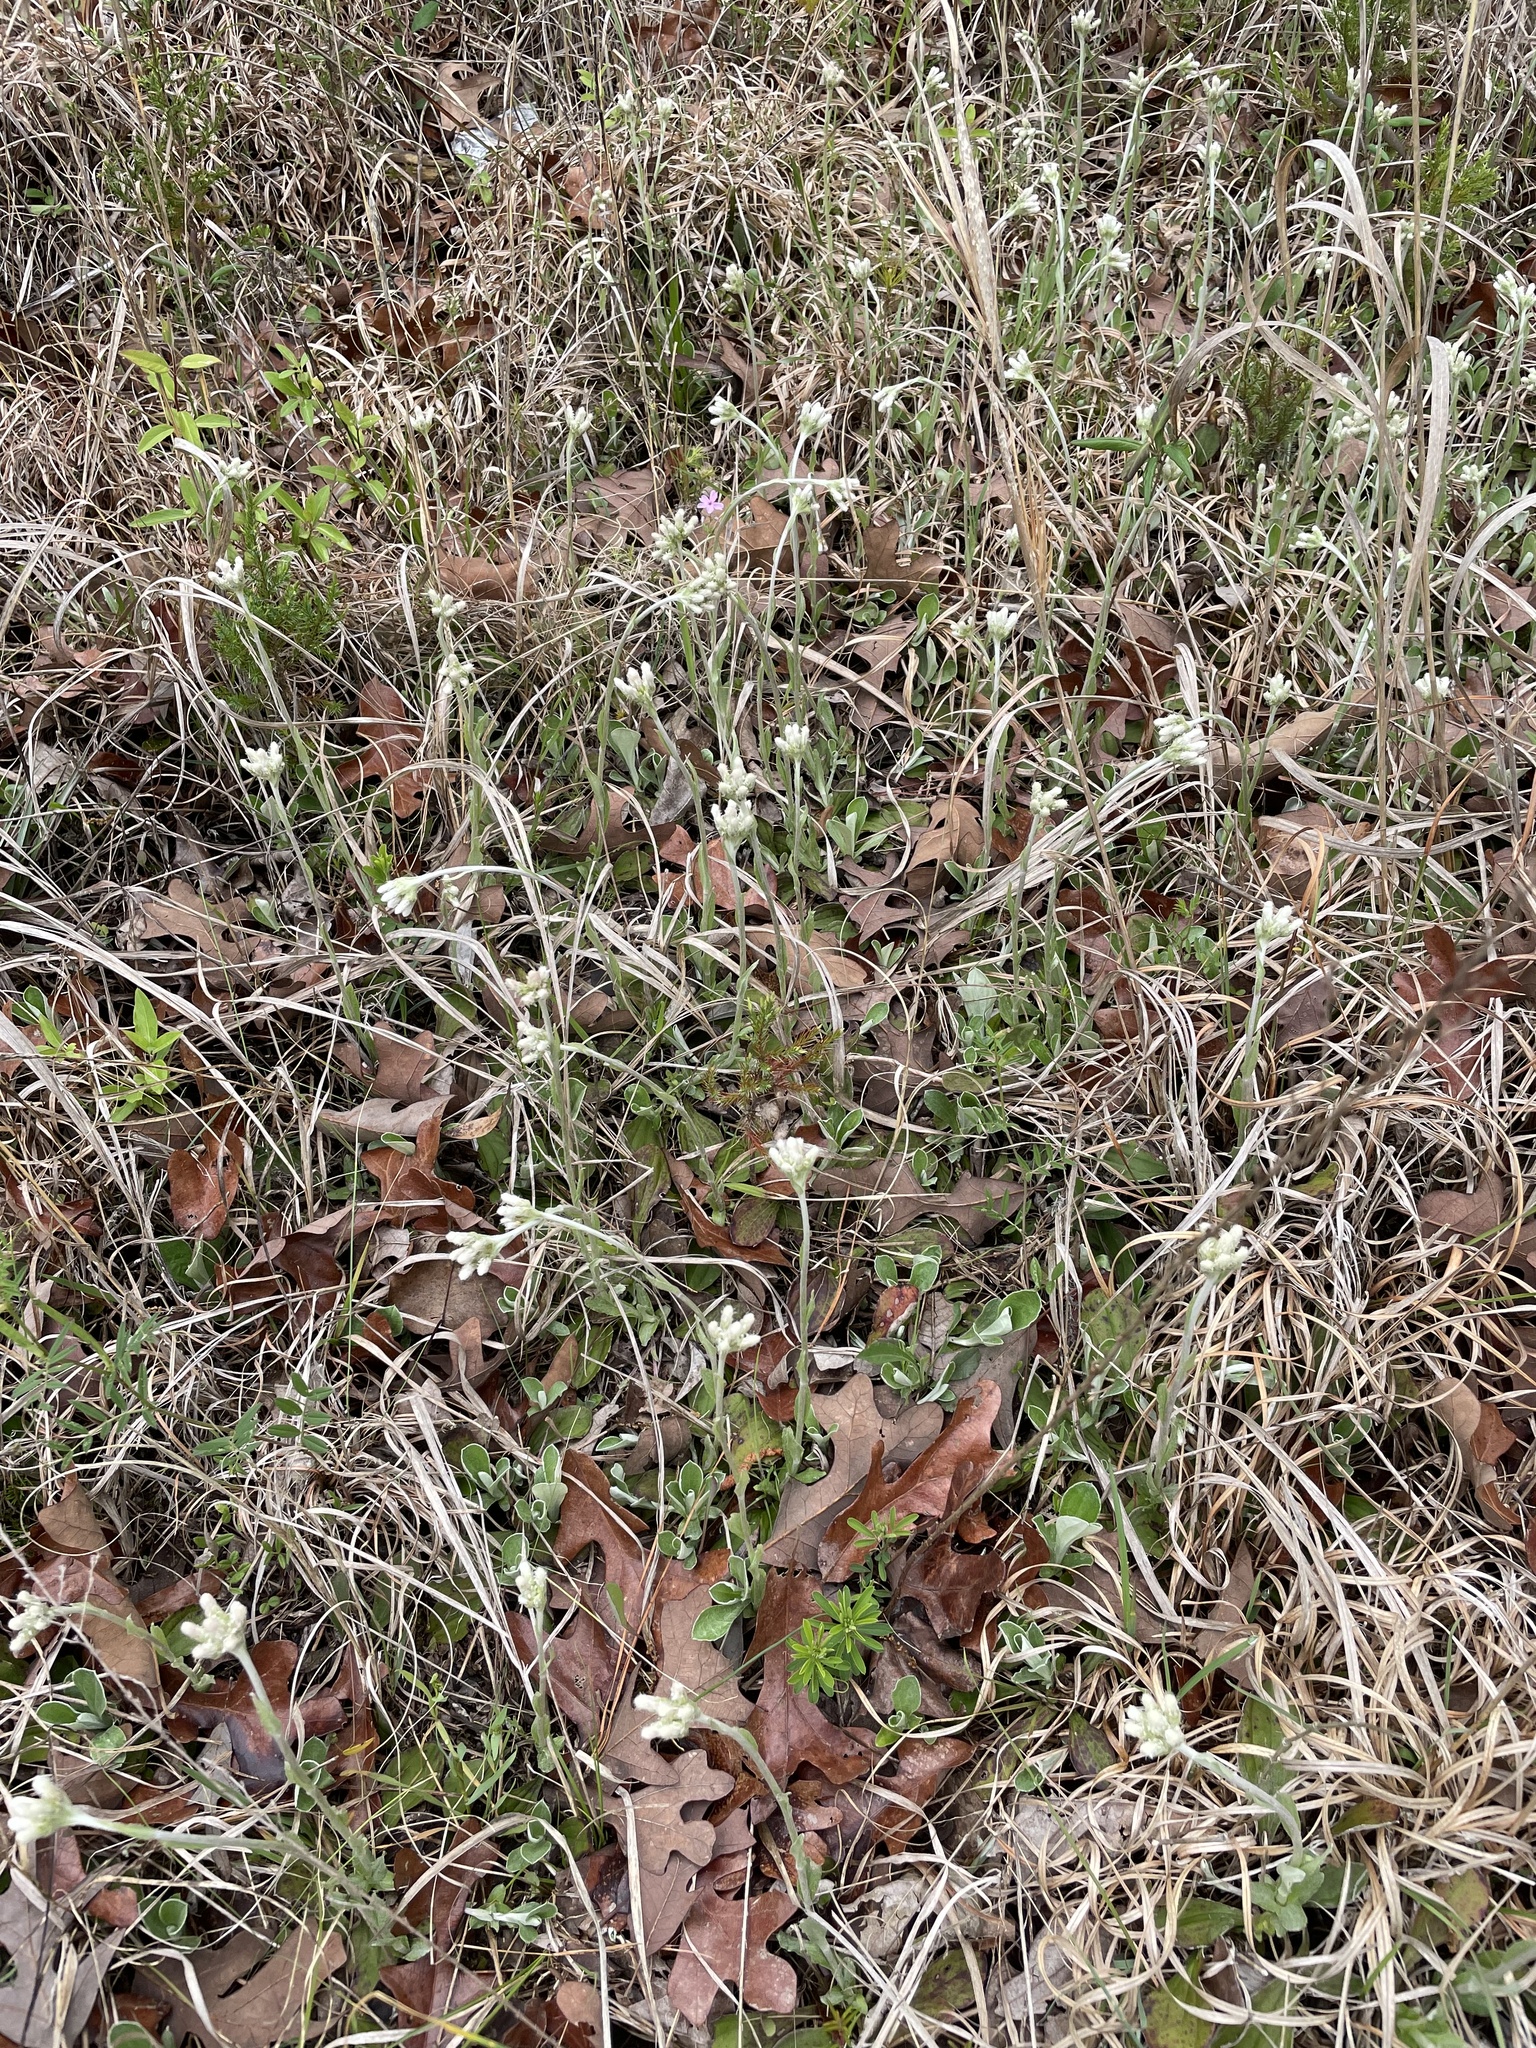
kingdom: Plantae
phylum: Tracheophyta
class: Magnoliopsida
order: Asterales
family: Asteraceae
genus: Antennaria
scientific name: Antennaria parlinii
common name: Parlin's pussytoes
